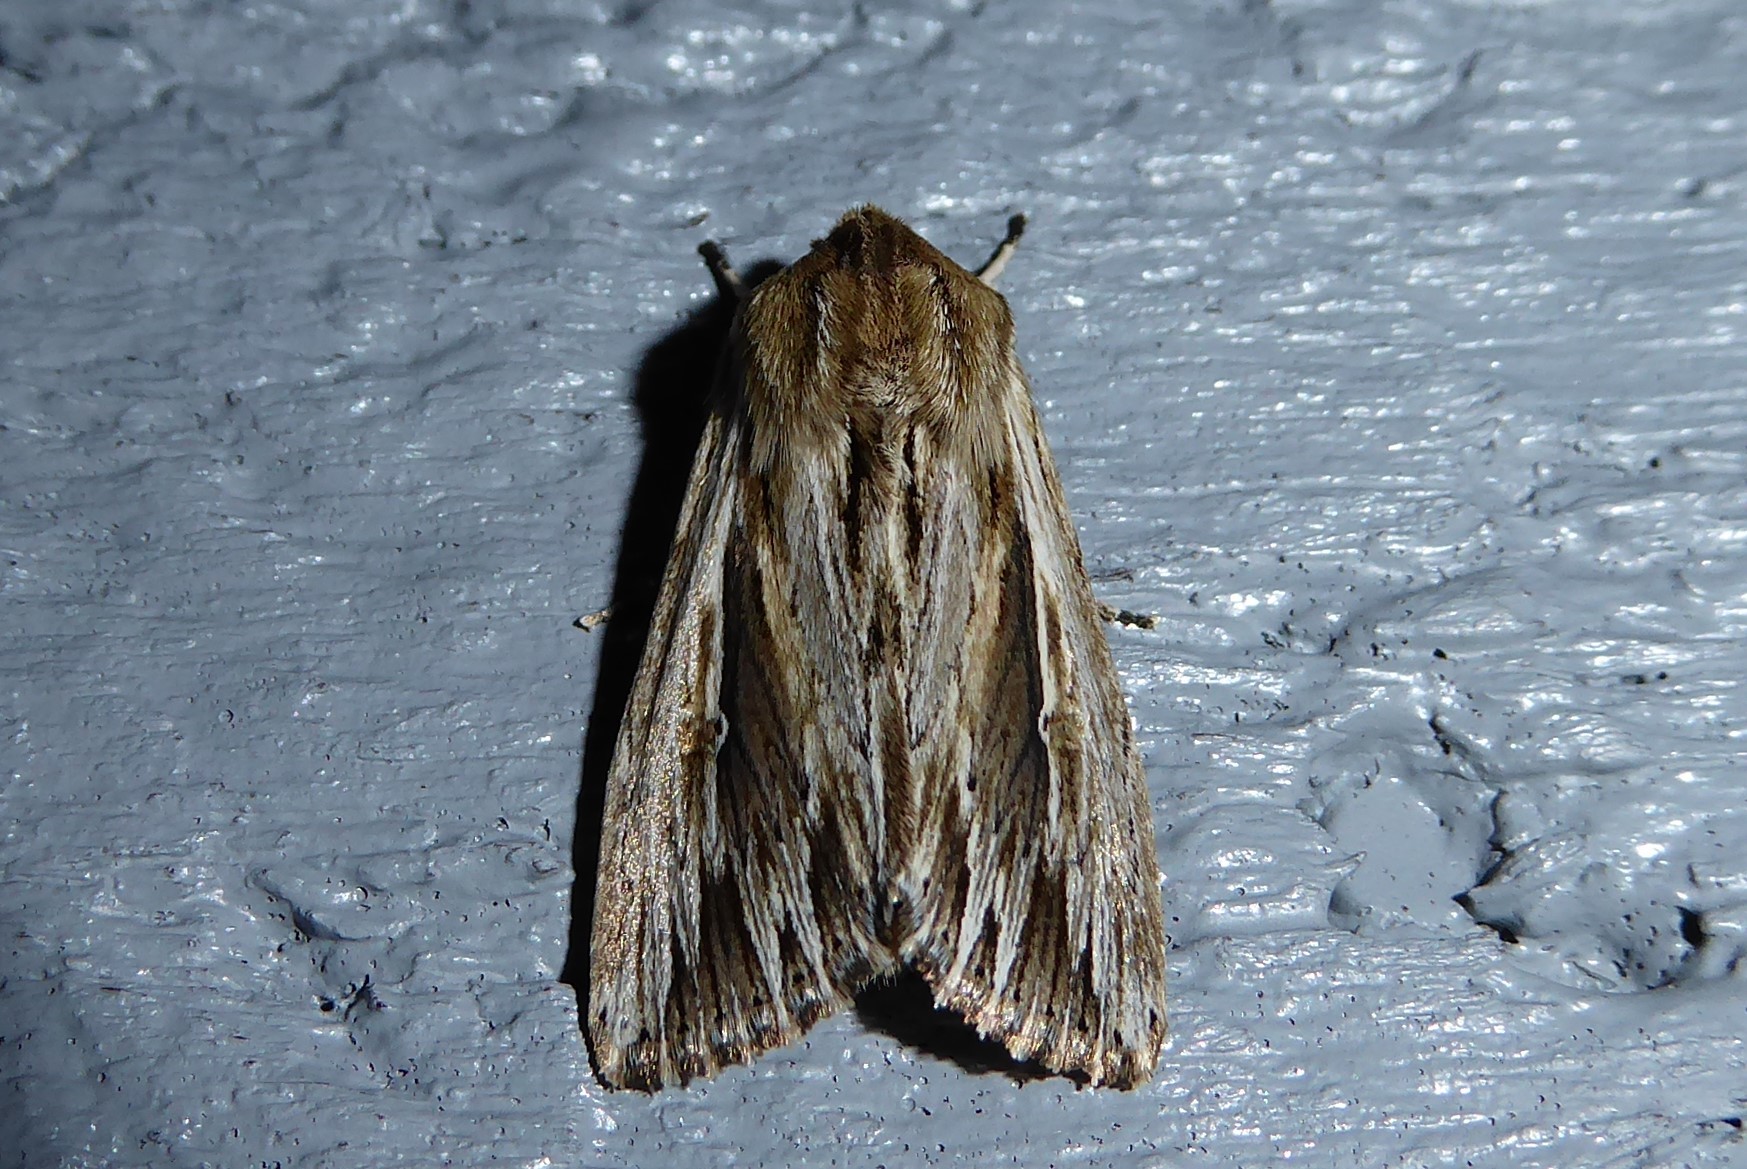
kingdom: Animalia
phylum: Arthropoda
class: Insecta
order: Lepidoptera
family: Noctuidae
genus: Persectania
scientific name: Persectania aversa
